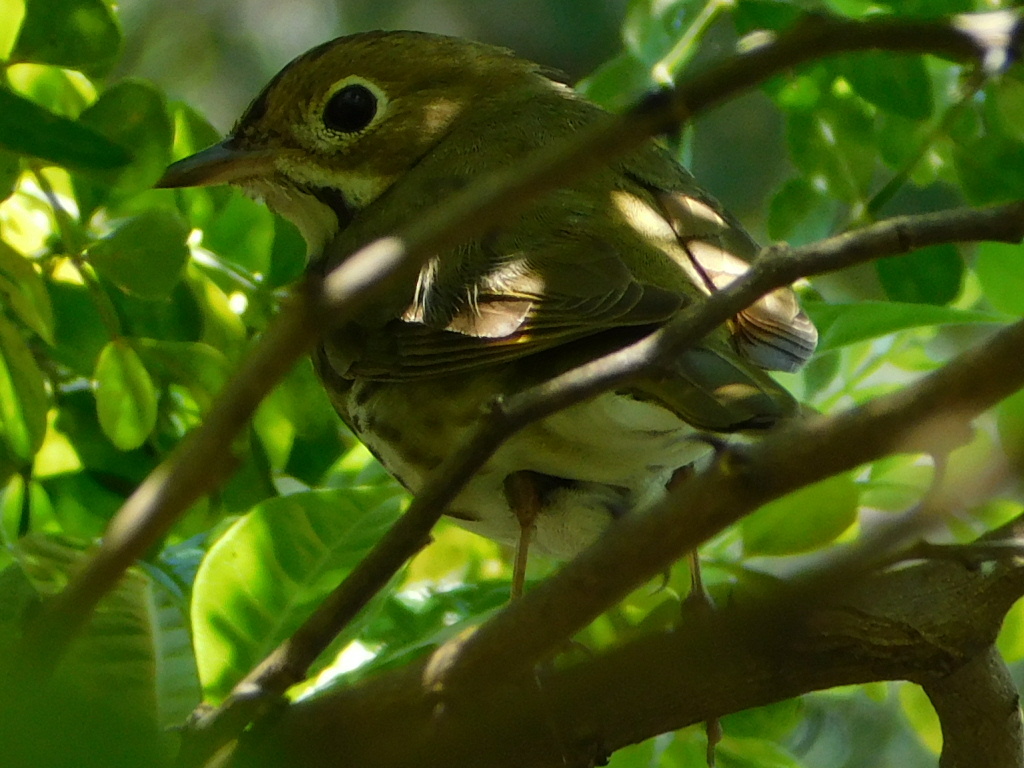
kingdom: Animalia
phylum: Chordata
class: Aves
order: Passeriformes
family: Parulidae
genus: Seiurus
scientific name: Seiurus aurocapilla
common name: Ovenbird
